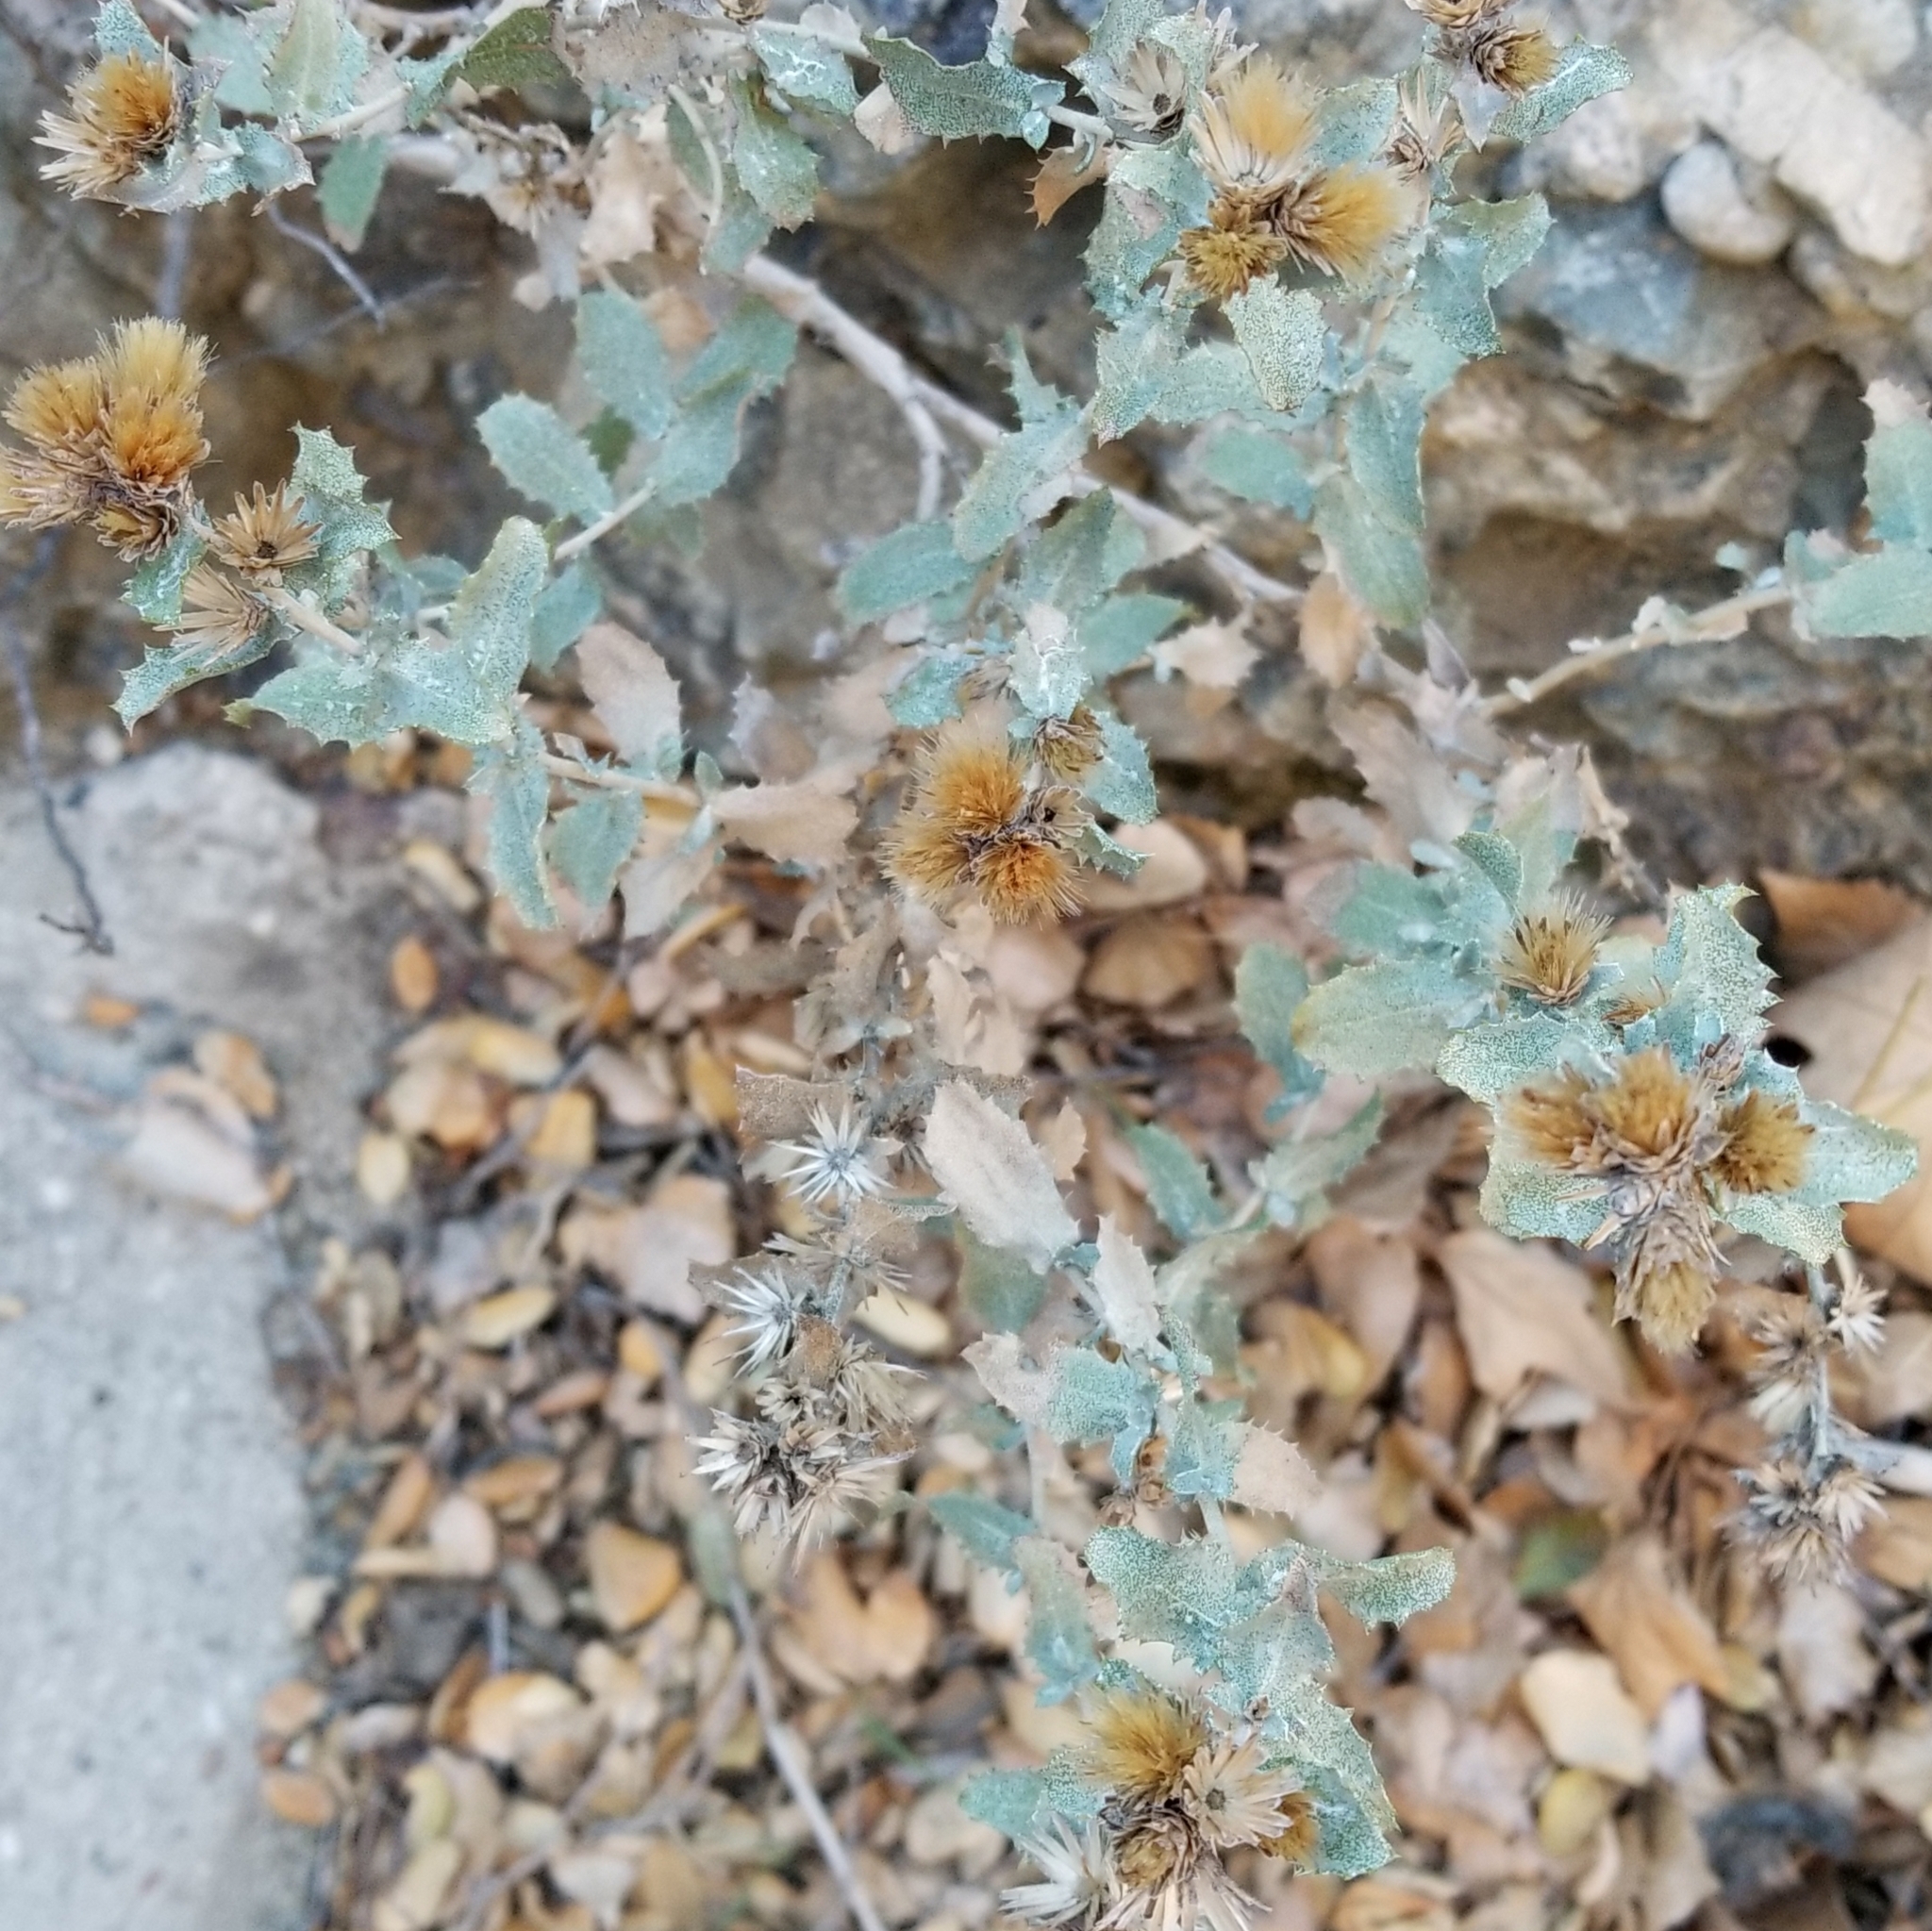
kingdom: Plantae
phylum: Tracheophyta
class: Magnoliopsida
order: Asterales
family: Asteraceae
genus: Hazardia
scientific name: Hazardia squarrosa
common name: Saw-tooth goldenbush
